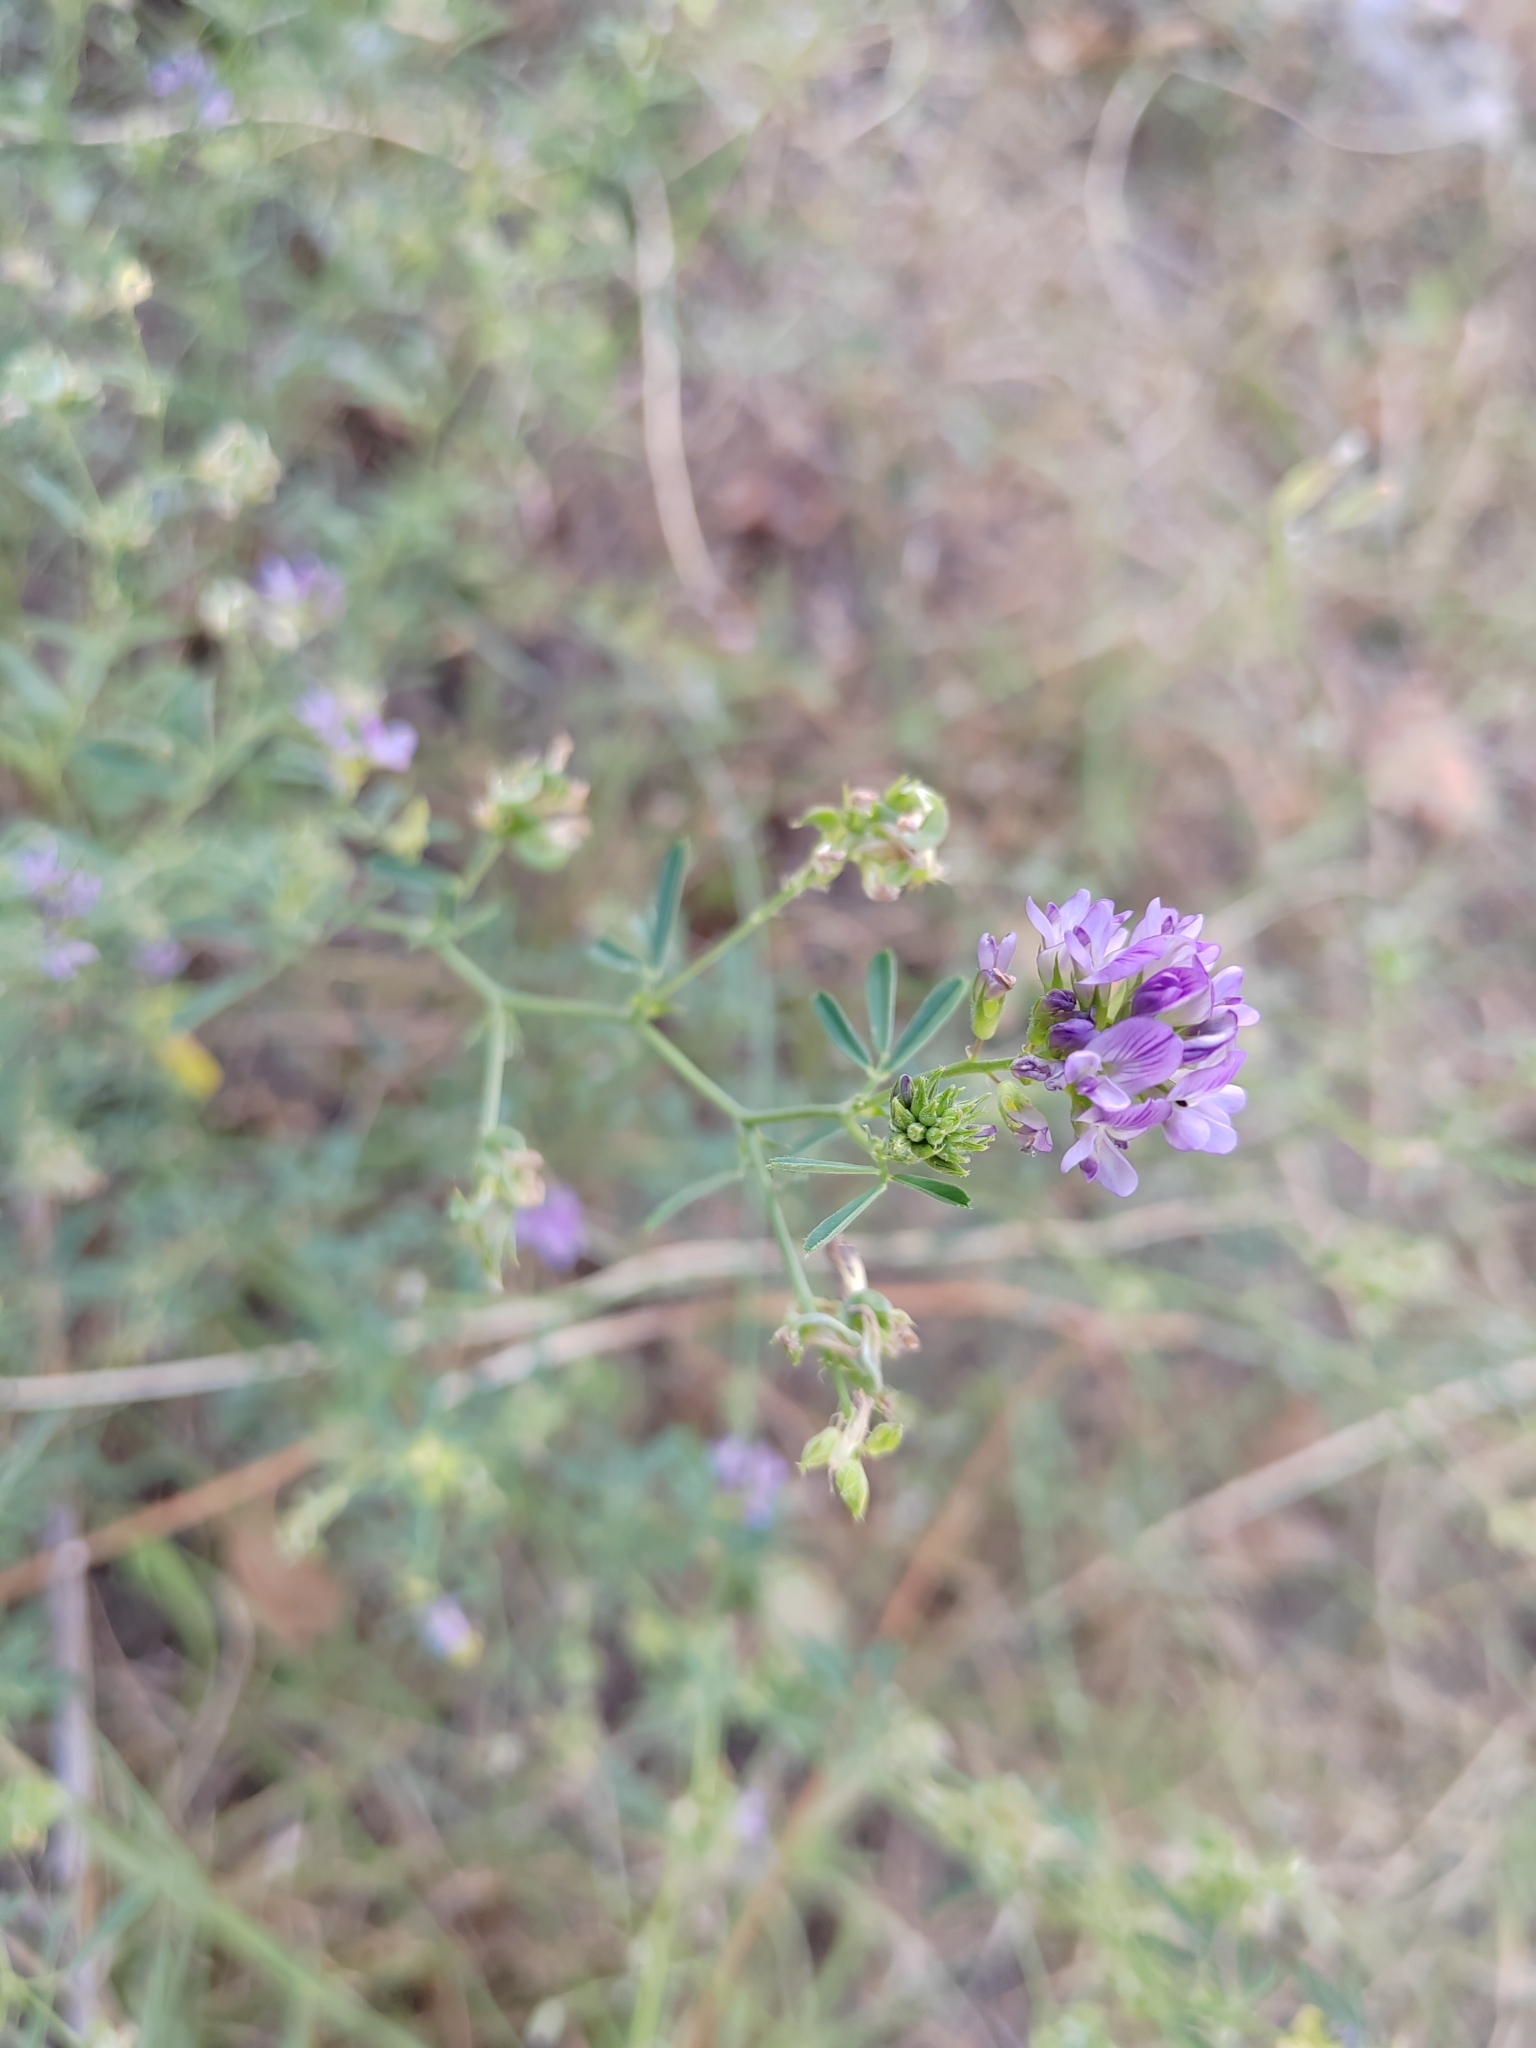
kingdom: Plantae
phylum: Tracheophyta
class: Magnoliopsida
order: Fabales
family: Fabaceae
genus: Medicago
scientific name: Medicago varia
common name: Sand lucerne
